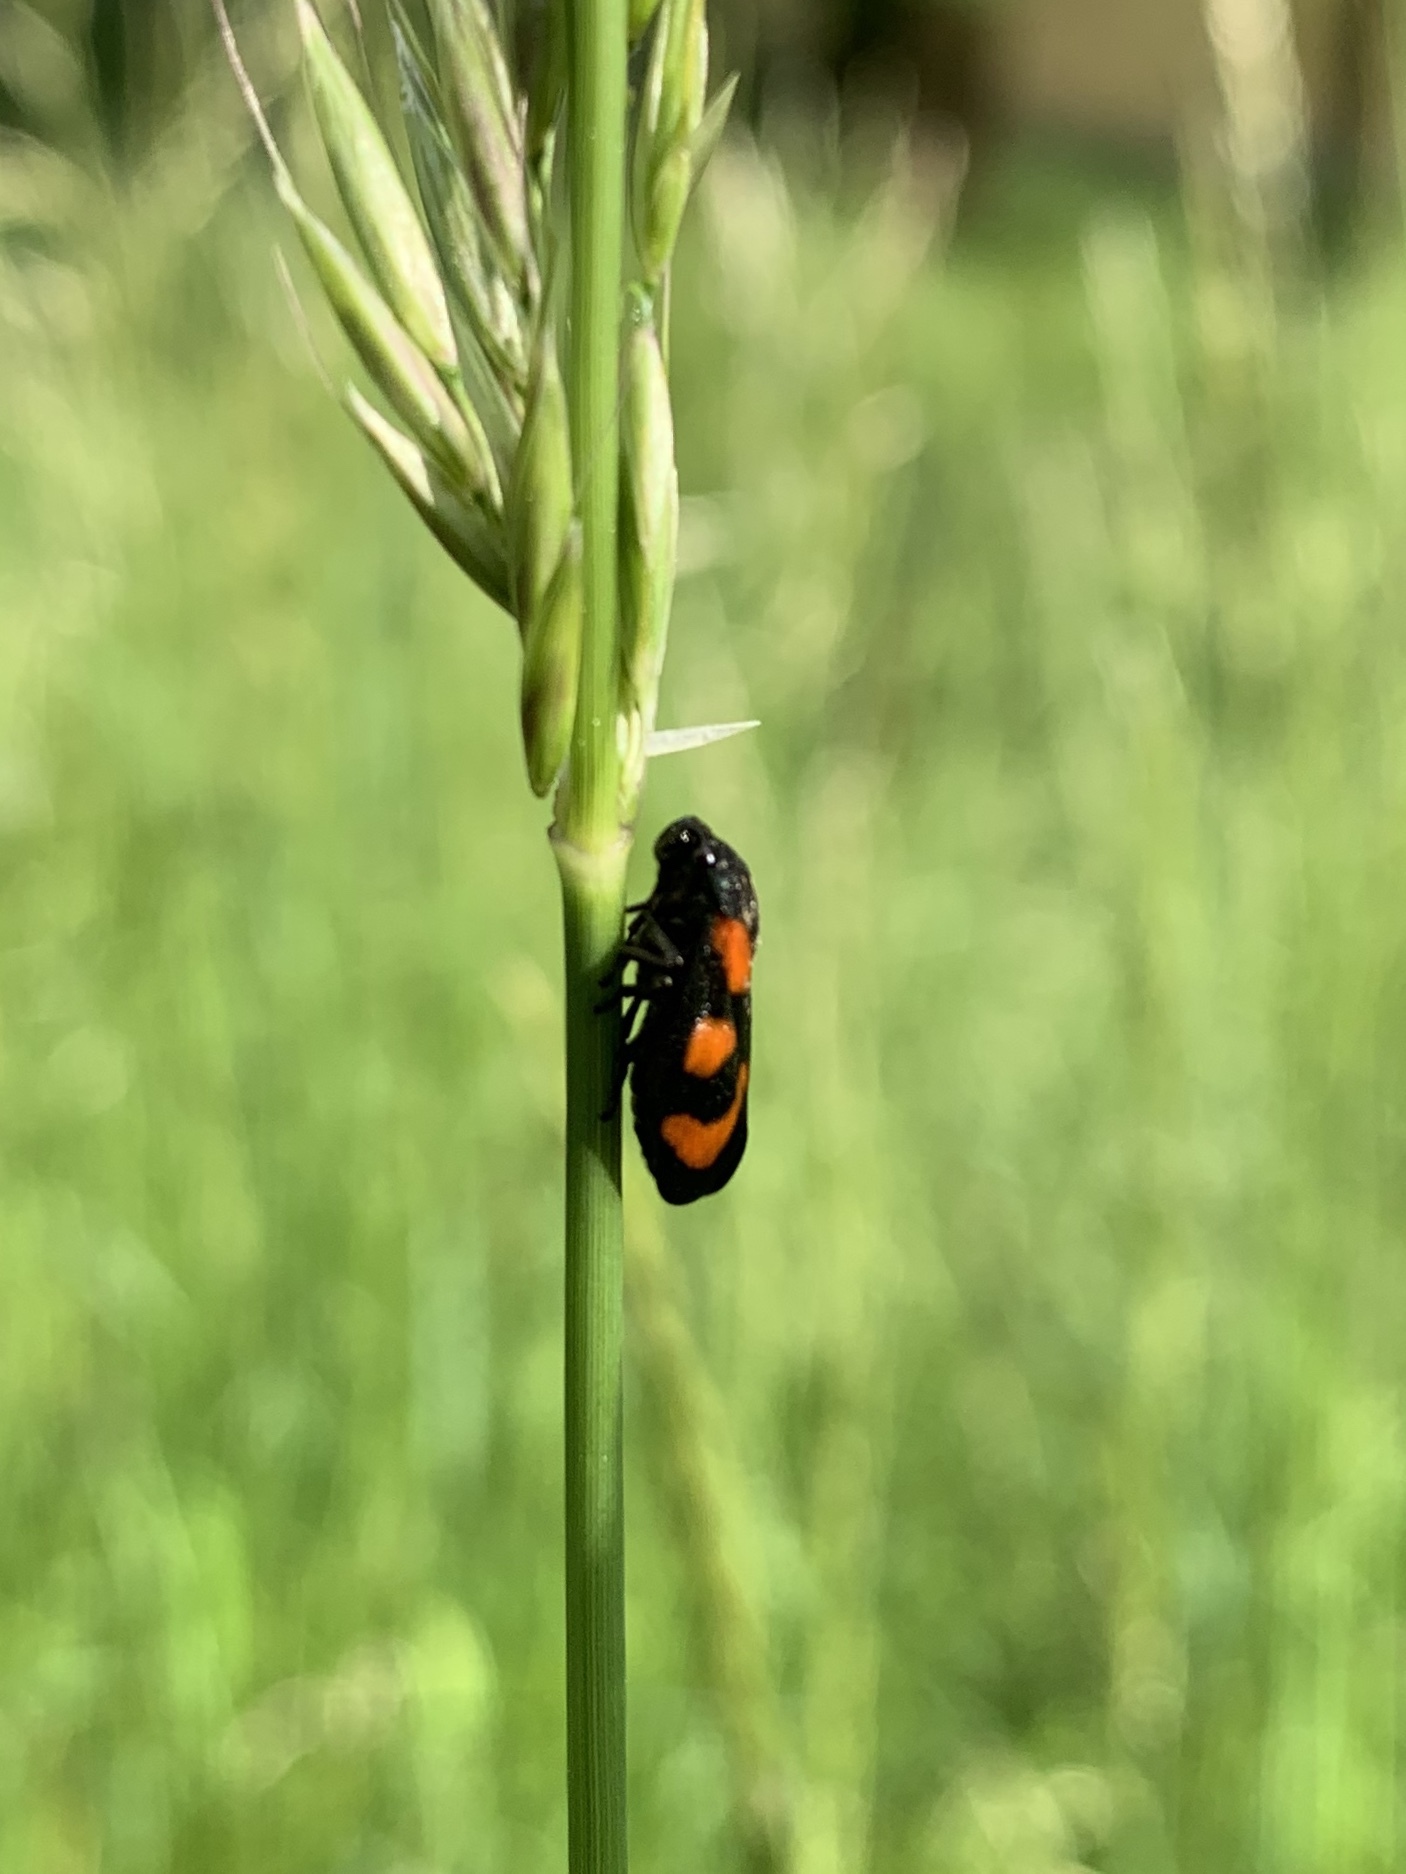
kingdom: Animalia
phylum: Arthropoda
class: Insecta
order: Hemiptera
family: Cercopidae
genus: Cercopis
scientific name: Cercopis vulnerata
